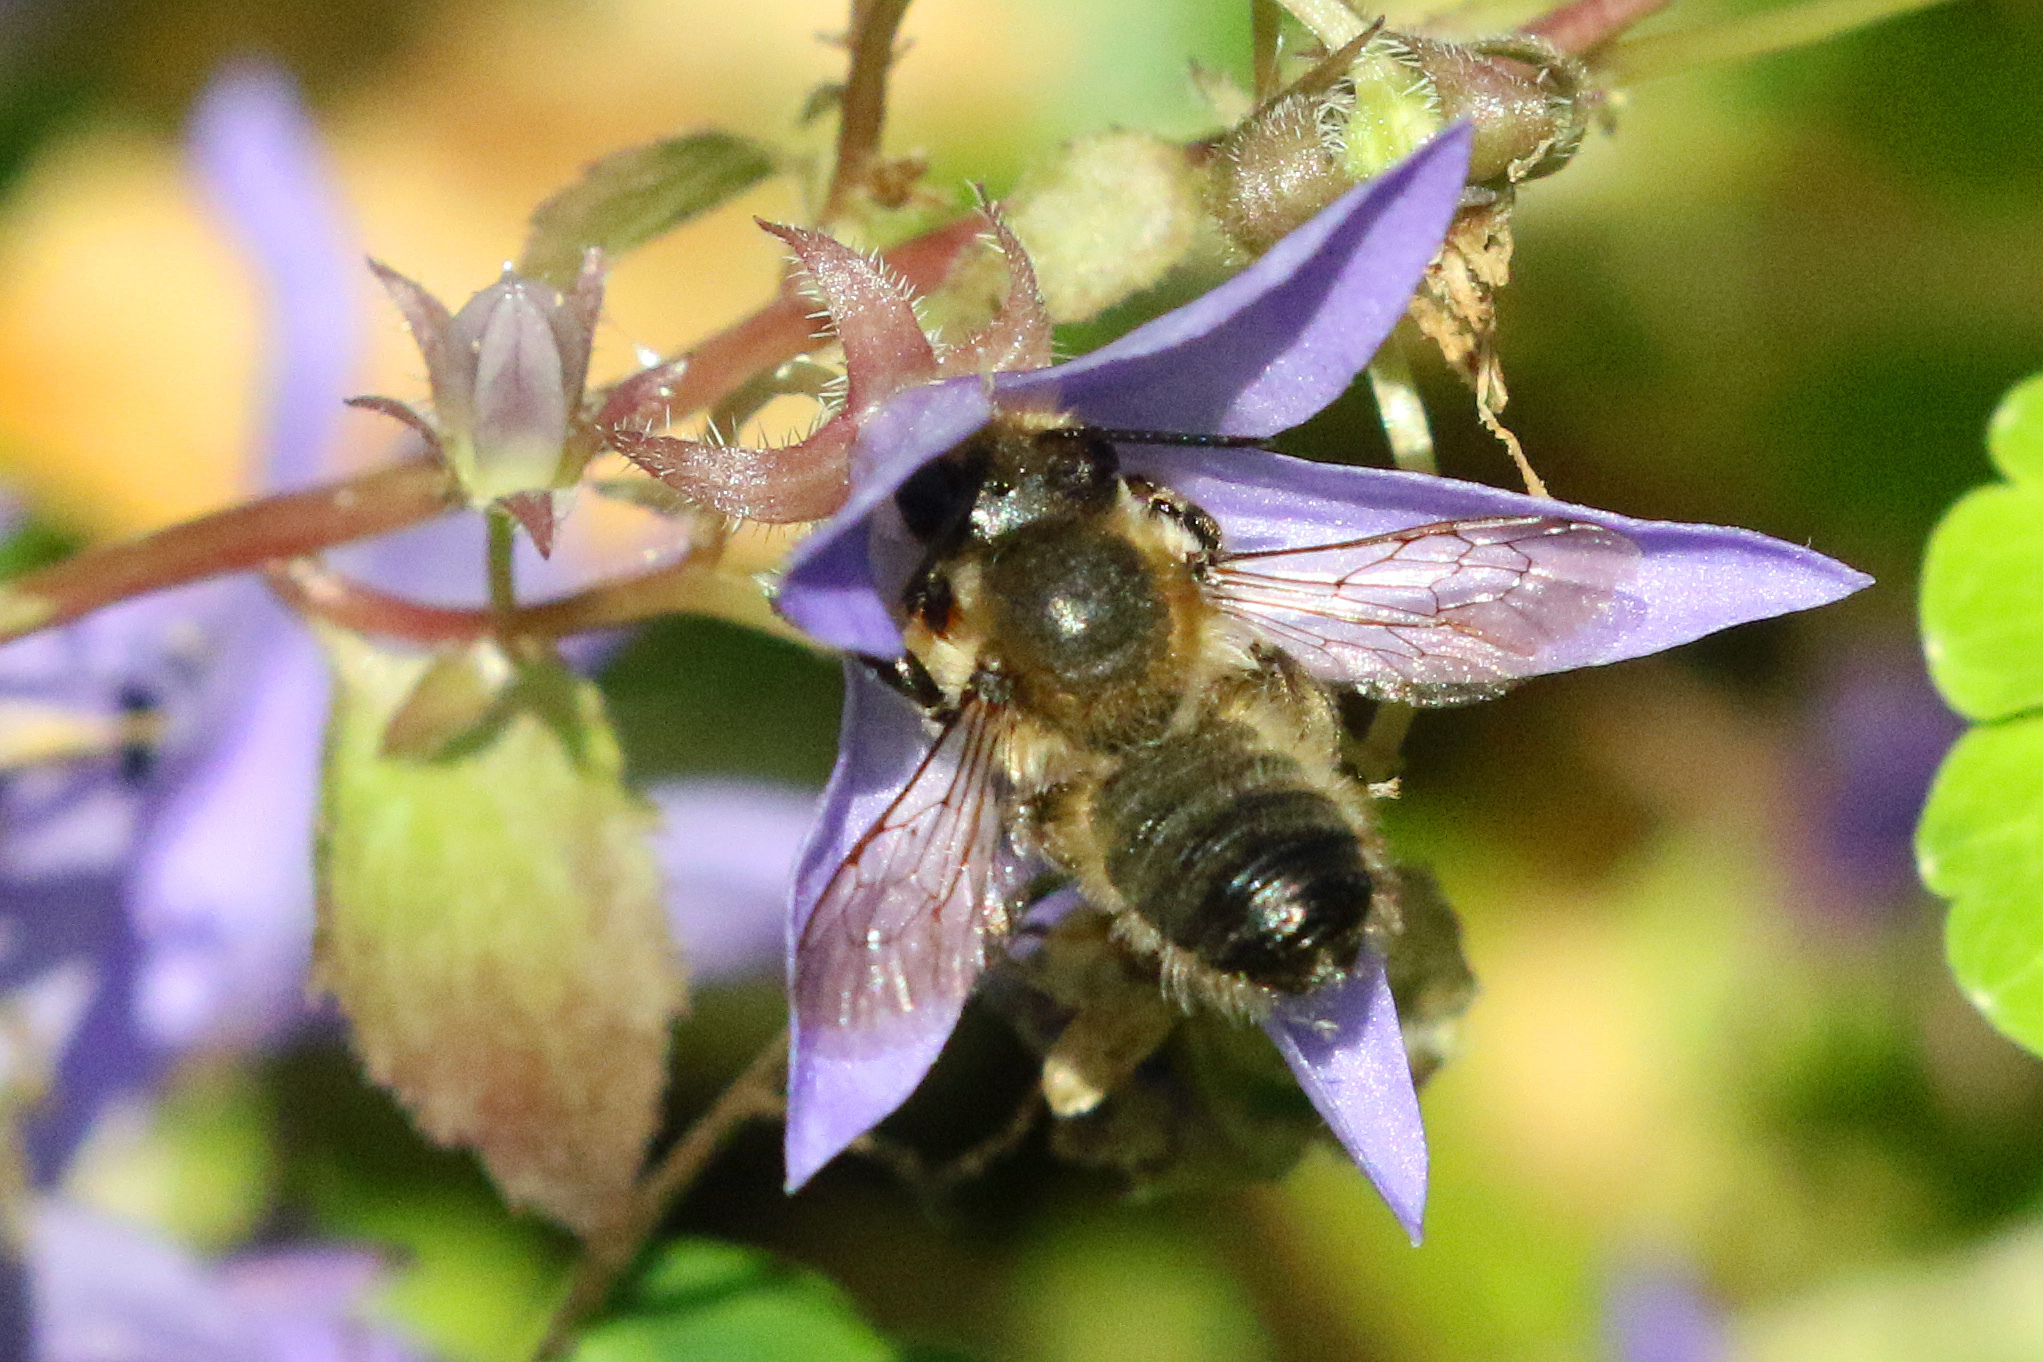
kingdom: Animalia
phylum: Arthropoda
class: Insecta
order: Hymenoptera
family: Megachilidae
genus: Megachile
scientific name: Megachile willughbiella
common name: Willughby's leafcutter bee
